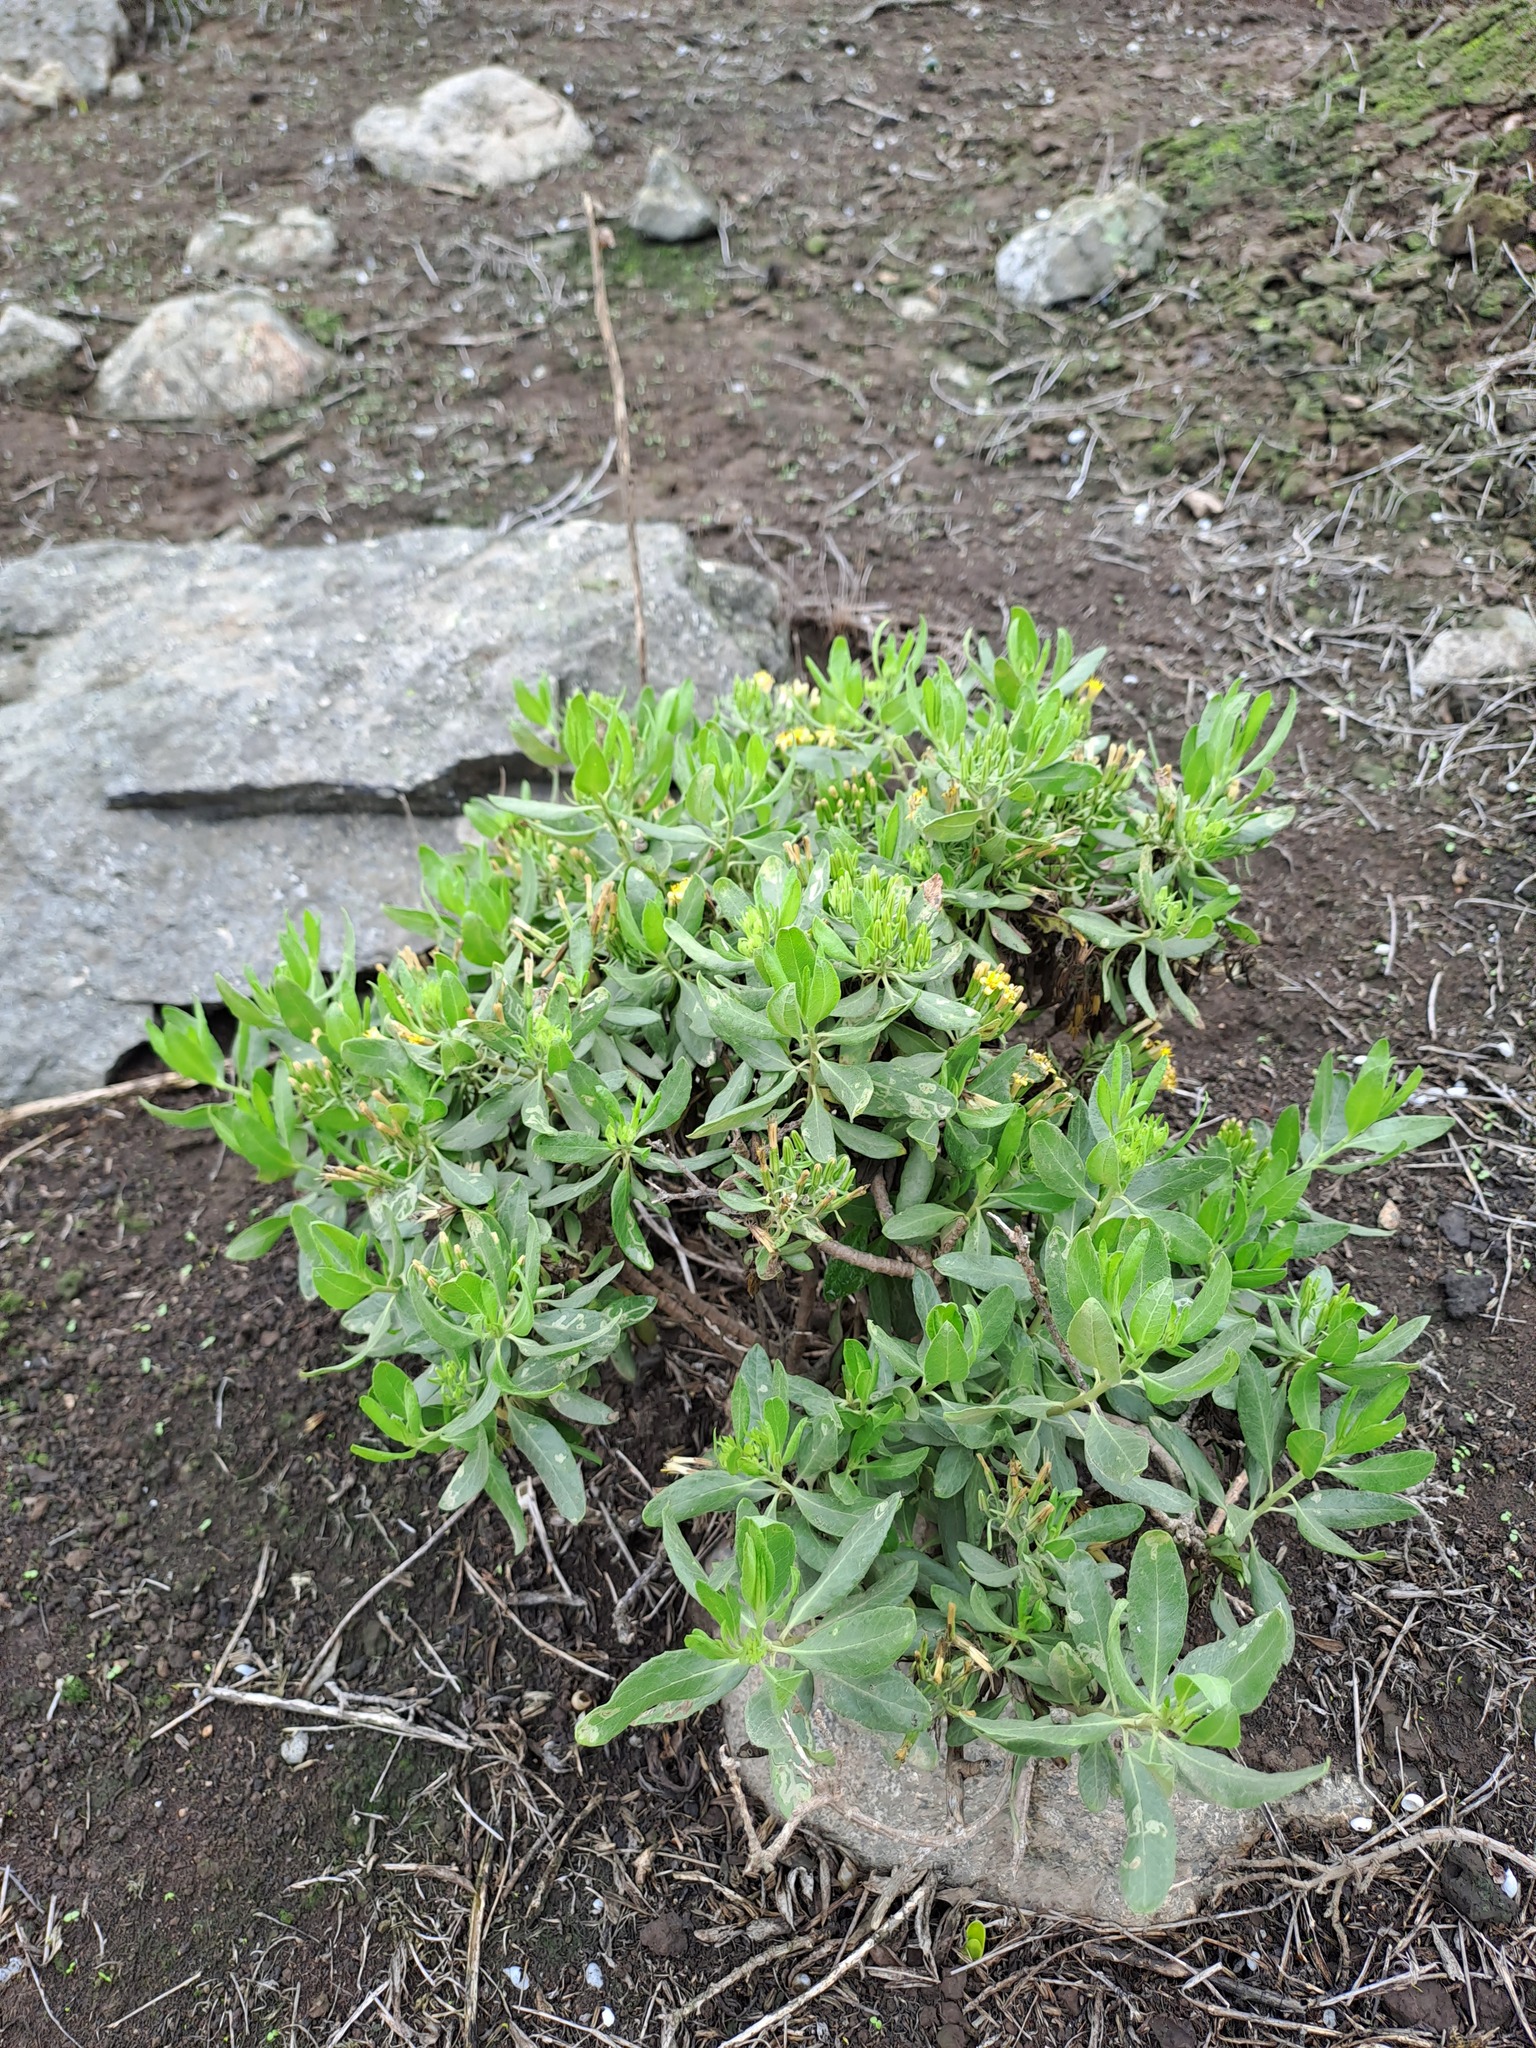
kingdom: Plantae
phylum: Tracheophyta
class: Magnoliopsida
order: Asterales
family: Asteraceae
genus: Trixis
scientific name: Trixis cacalioides
